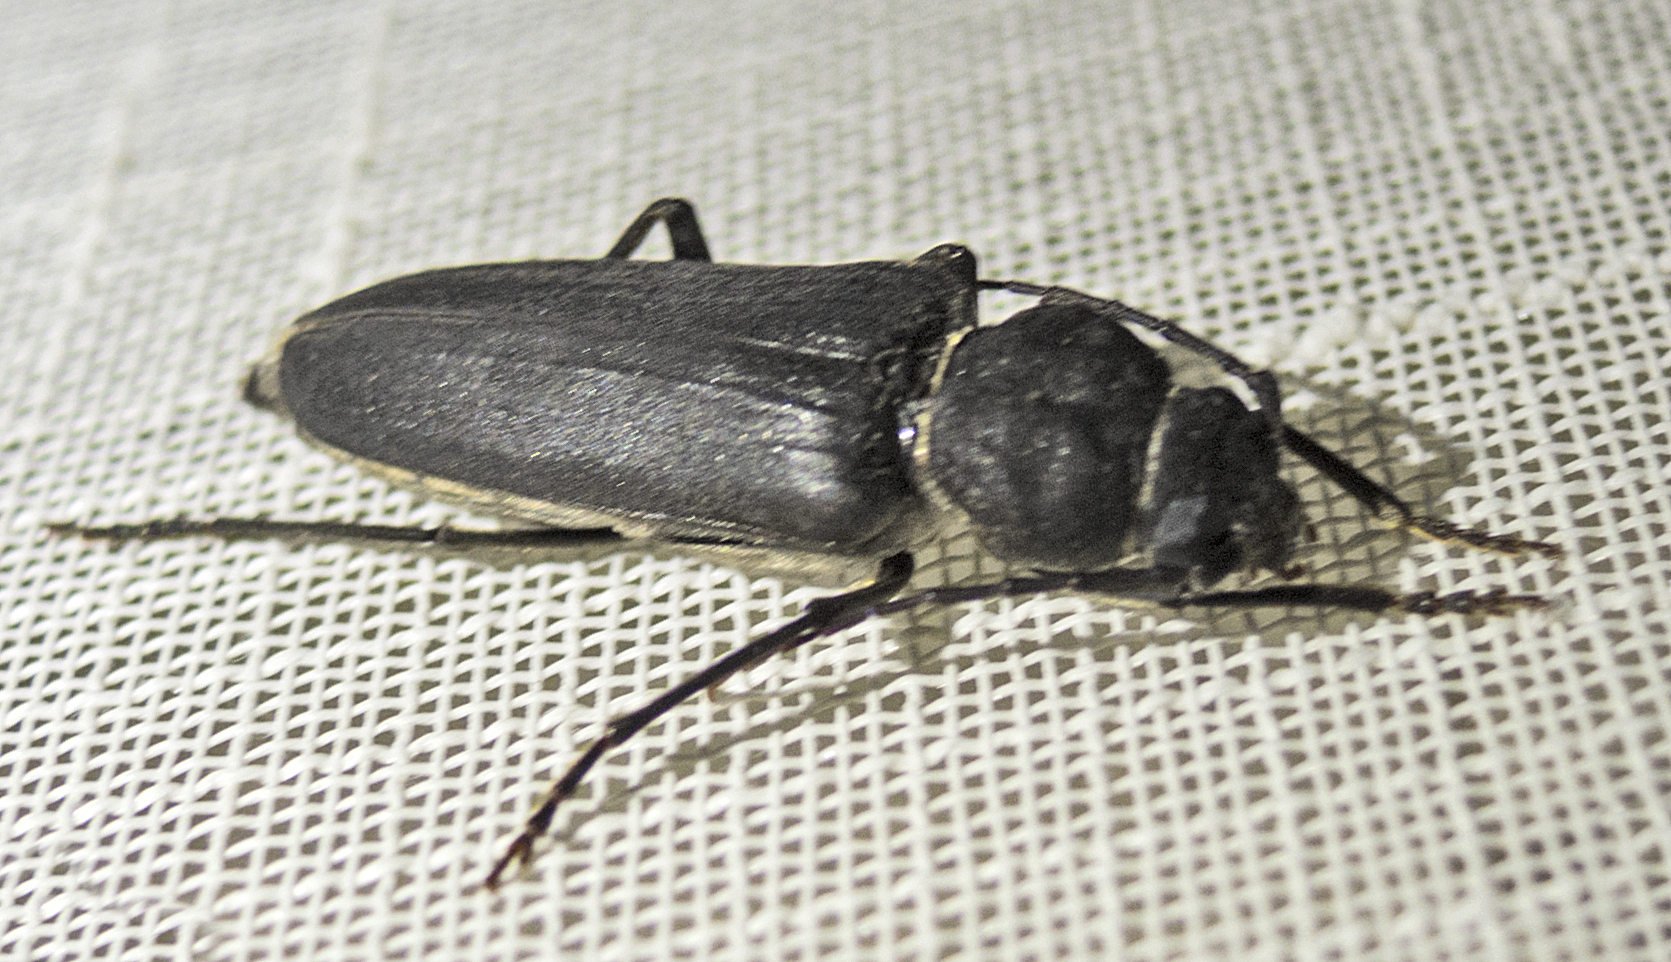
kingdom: Animalia
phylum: Arthropoda
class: Insecta
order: Coleoptera
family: Cerambycidae
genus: Arhopalus
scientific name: Arhopalus ferus
